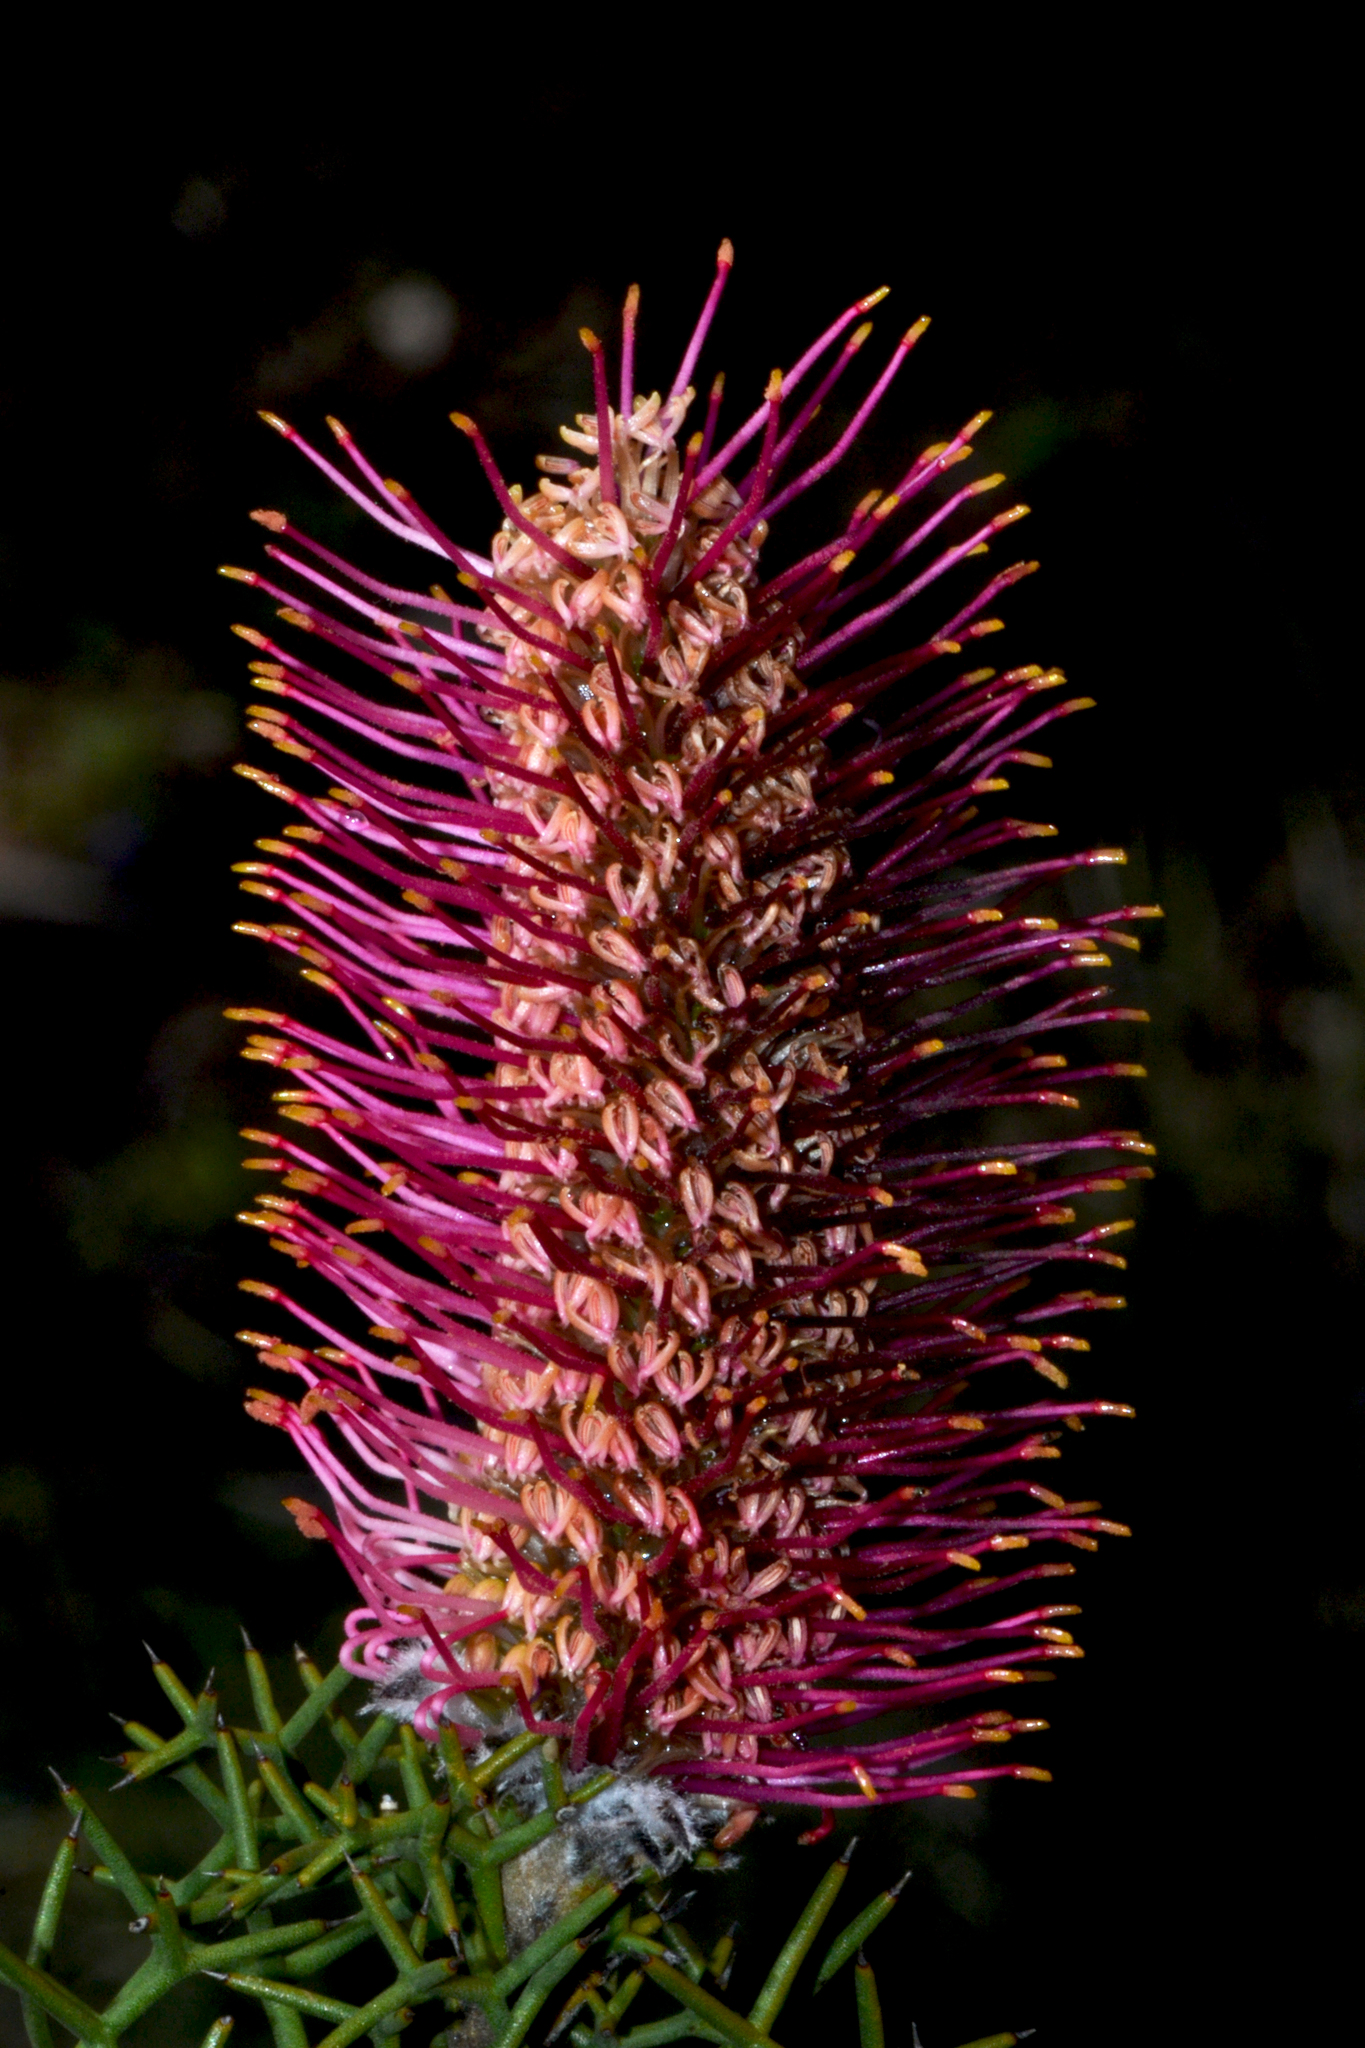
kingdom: Plantae
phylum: Tracheophyta
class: Magnoliopsida
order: Proteales
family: Proteaceae
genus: Grevillea
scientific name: Grevillea paradoxa
